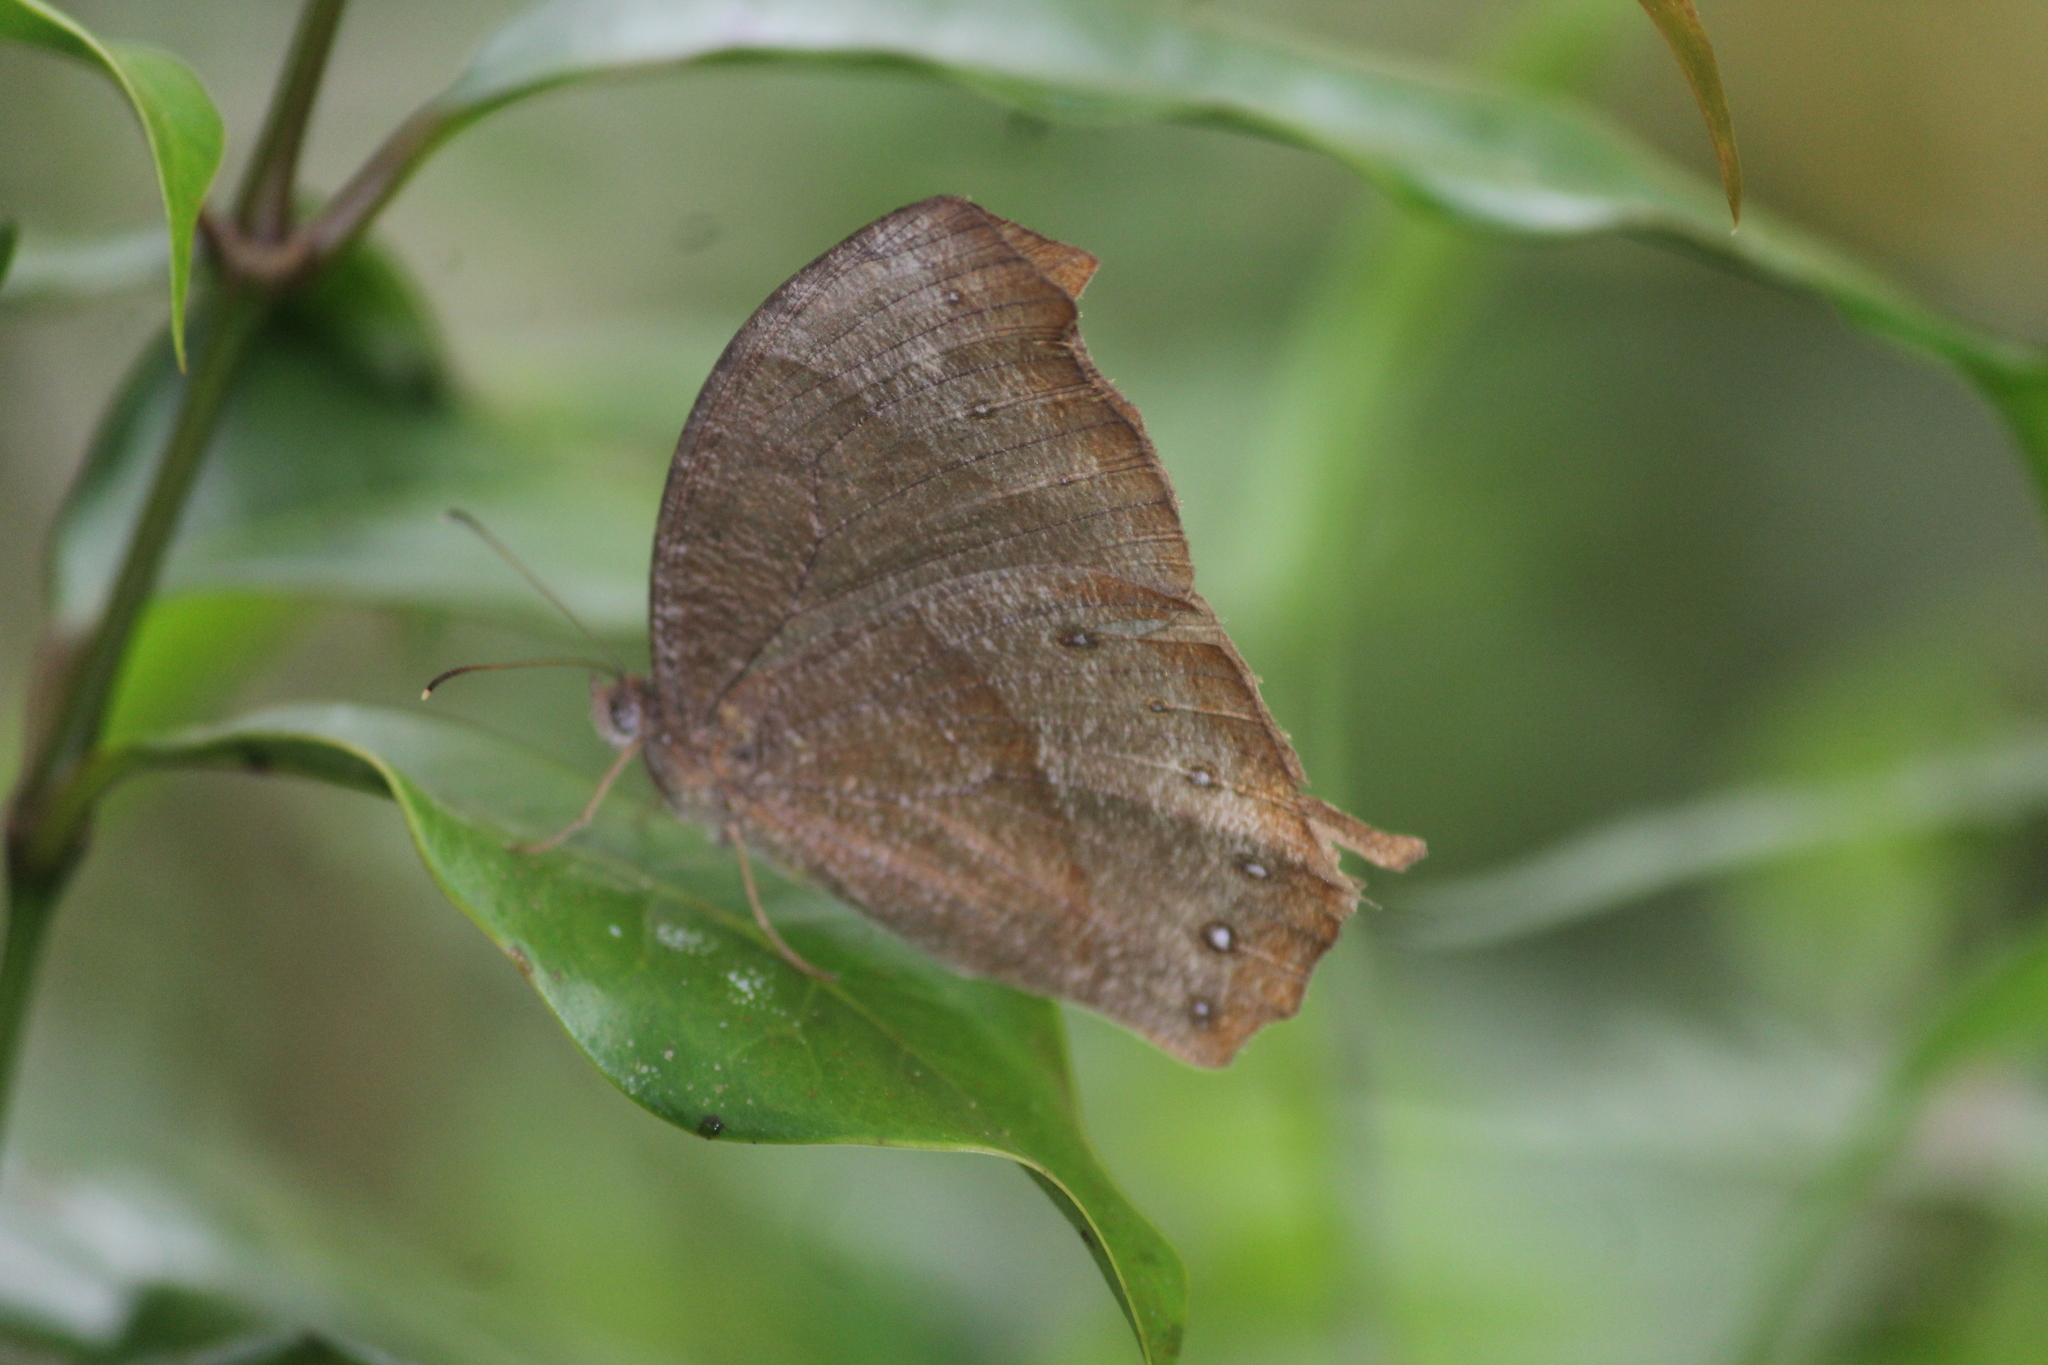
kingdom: Animalia
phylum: Arthropoda
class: Insecta
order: Lepidoptera
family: Nymphalidae
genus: Melanitis
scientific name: Melanitis leda
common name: Twilight brown
